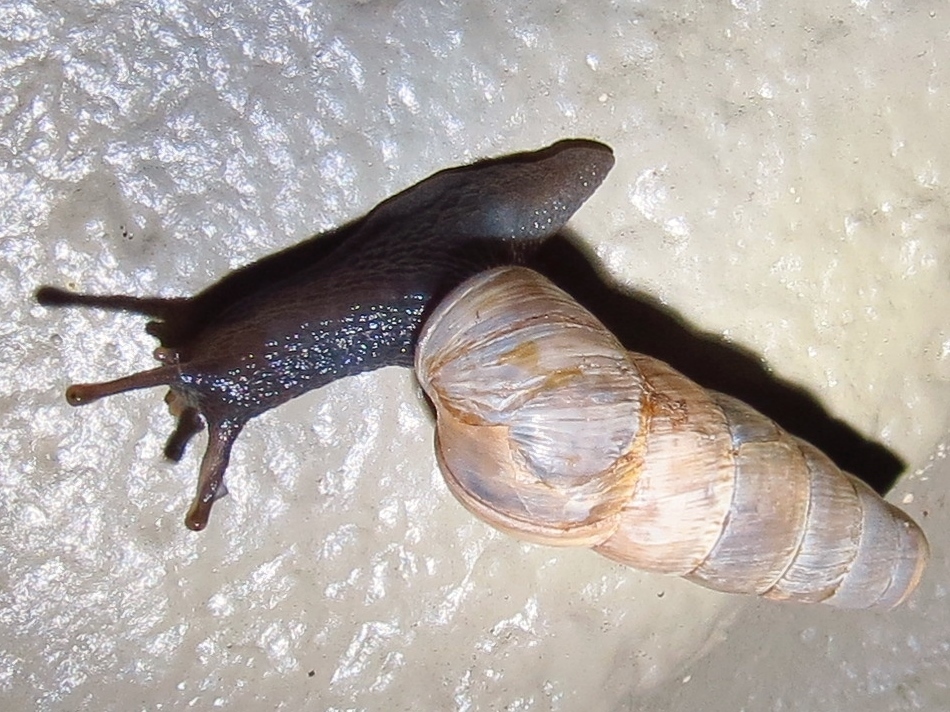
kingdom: Animalia
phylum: Mollusca
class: Gastropoda
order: Stylommatophora
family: Achatinidae
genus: Rumina
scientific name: Rumina decollata
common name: Decollate snail
